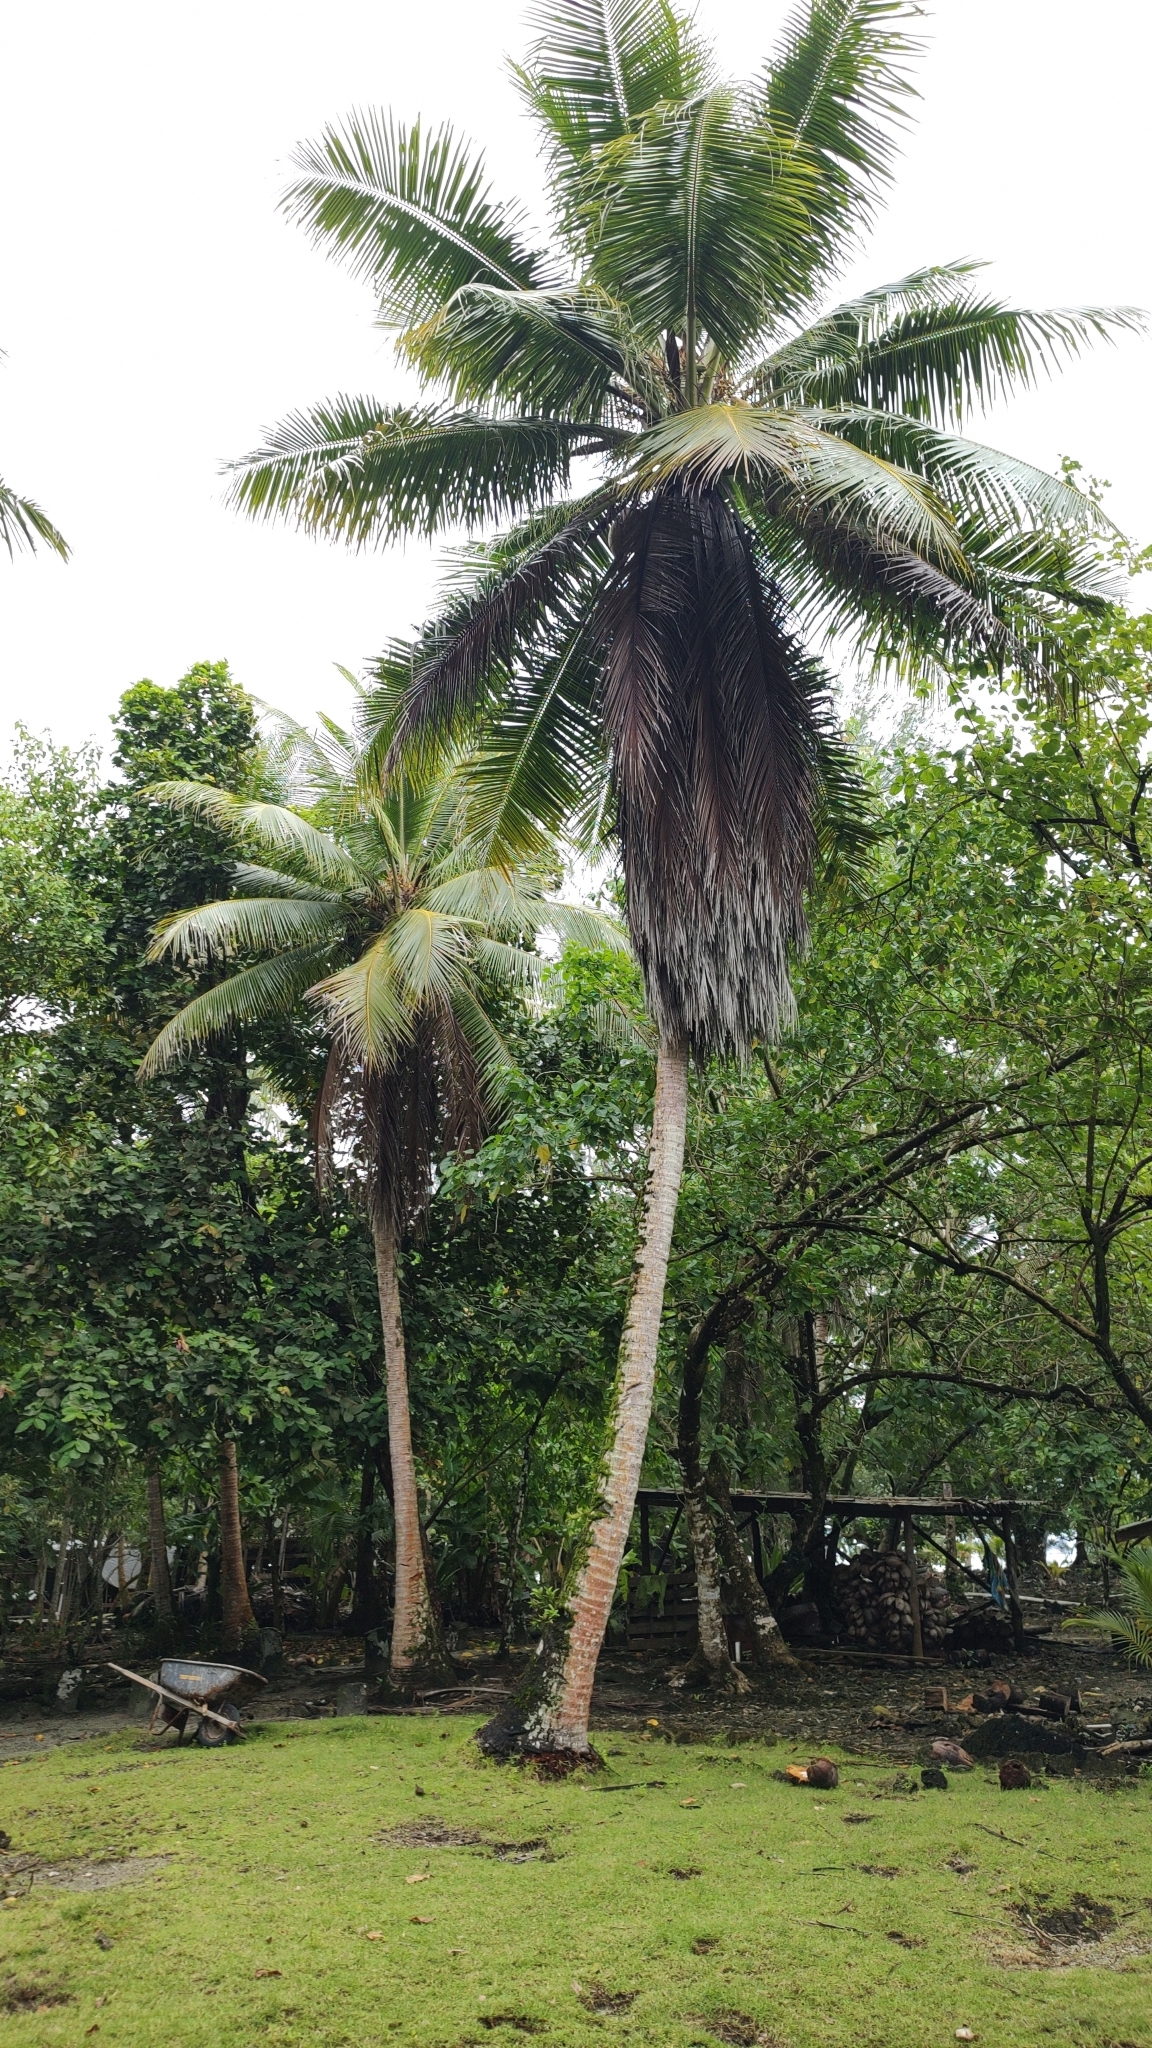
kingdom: Plantae
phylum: Tracheophyta
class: Liliopsida
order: Arecales
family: Arecaceae
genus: Cocos
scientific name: Cocos nucifera
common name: Coconut palm
